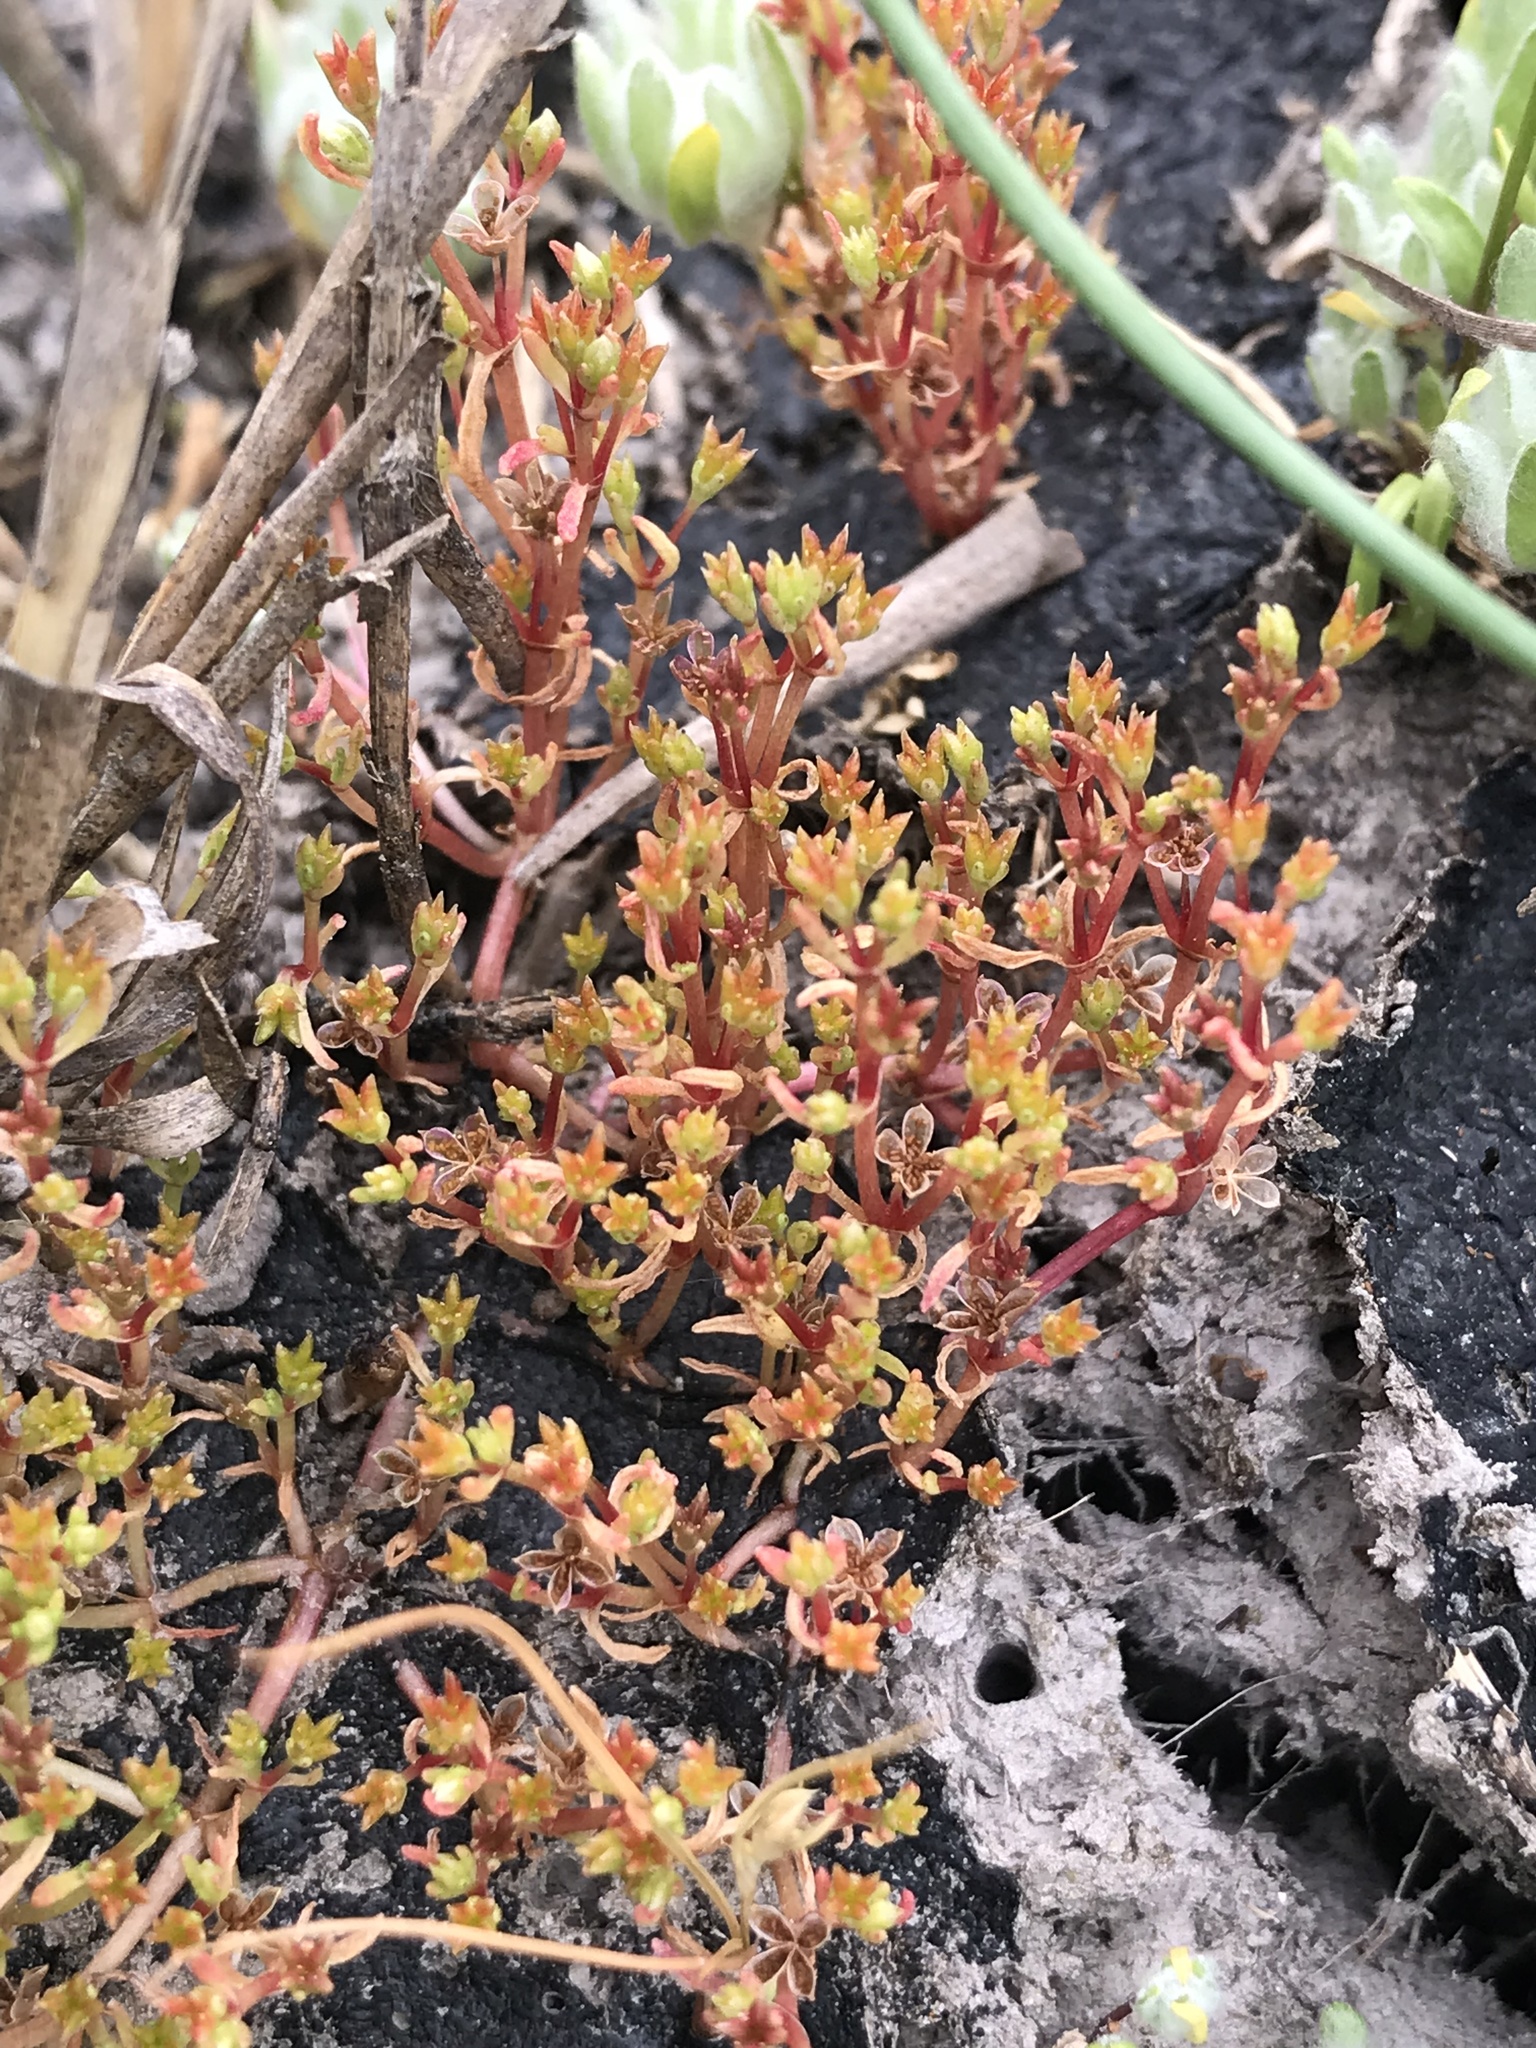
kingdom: Plantae
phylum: Tracheophyta
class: Magnoliopsida
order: Saxifragales
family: Crassulaceae
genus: Crassula
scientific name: Crassula aquatica
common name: Pigmyweed
